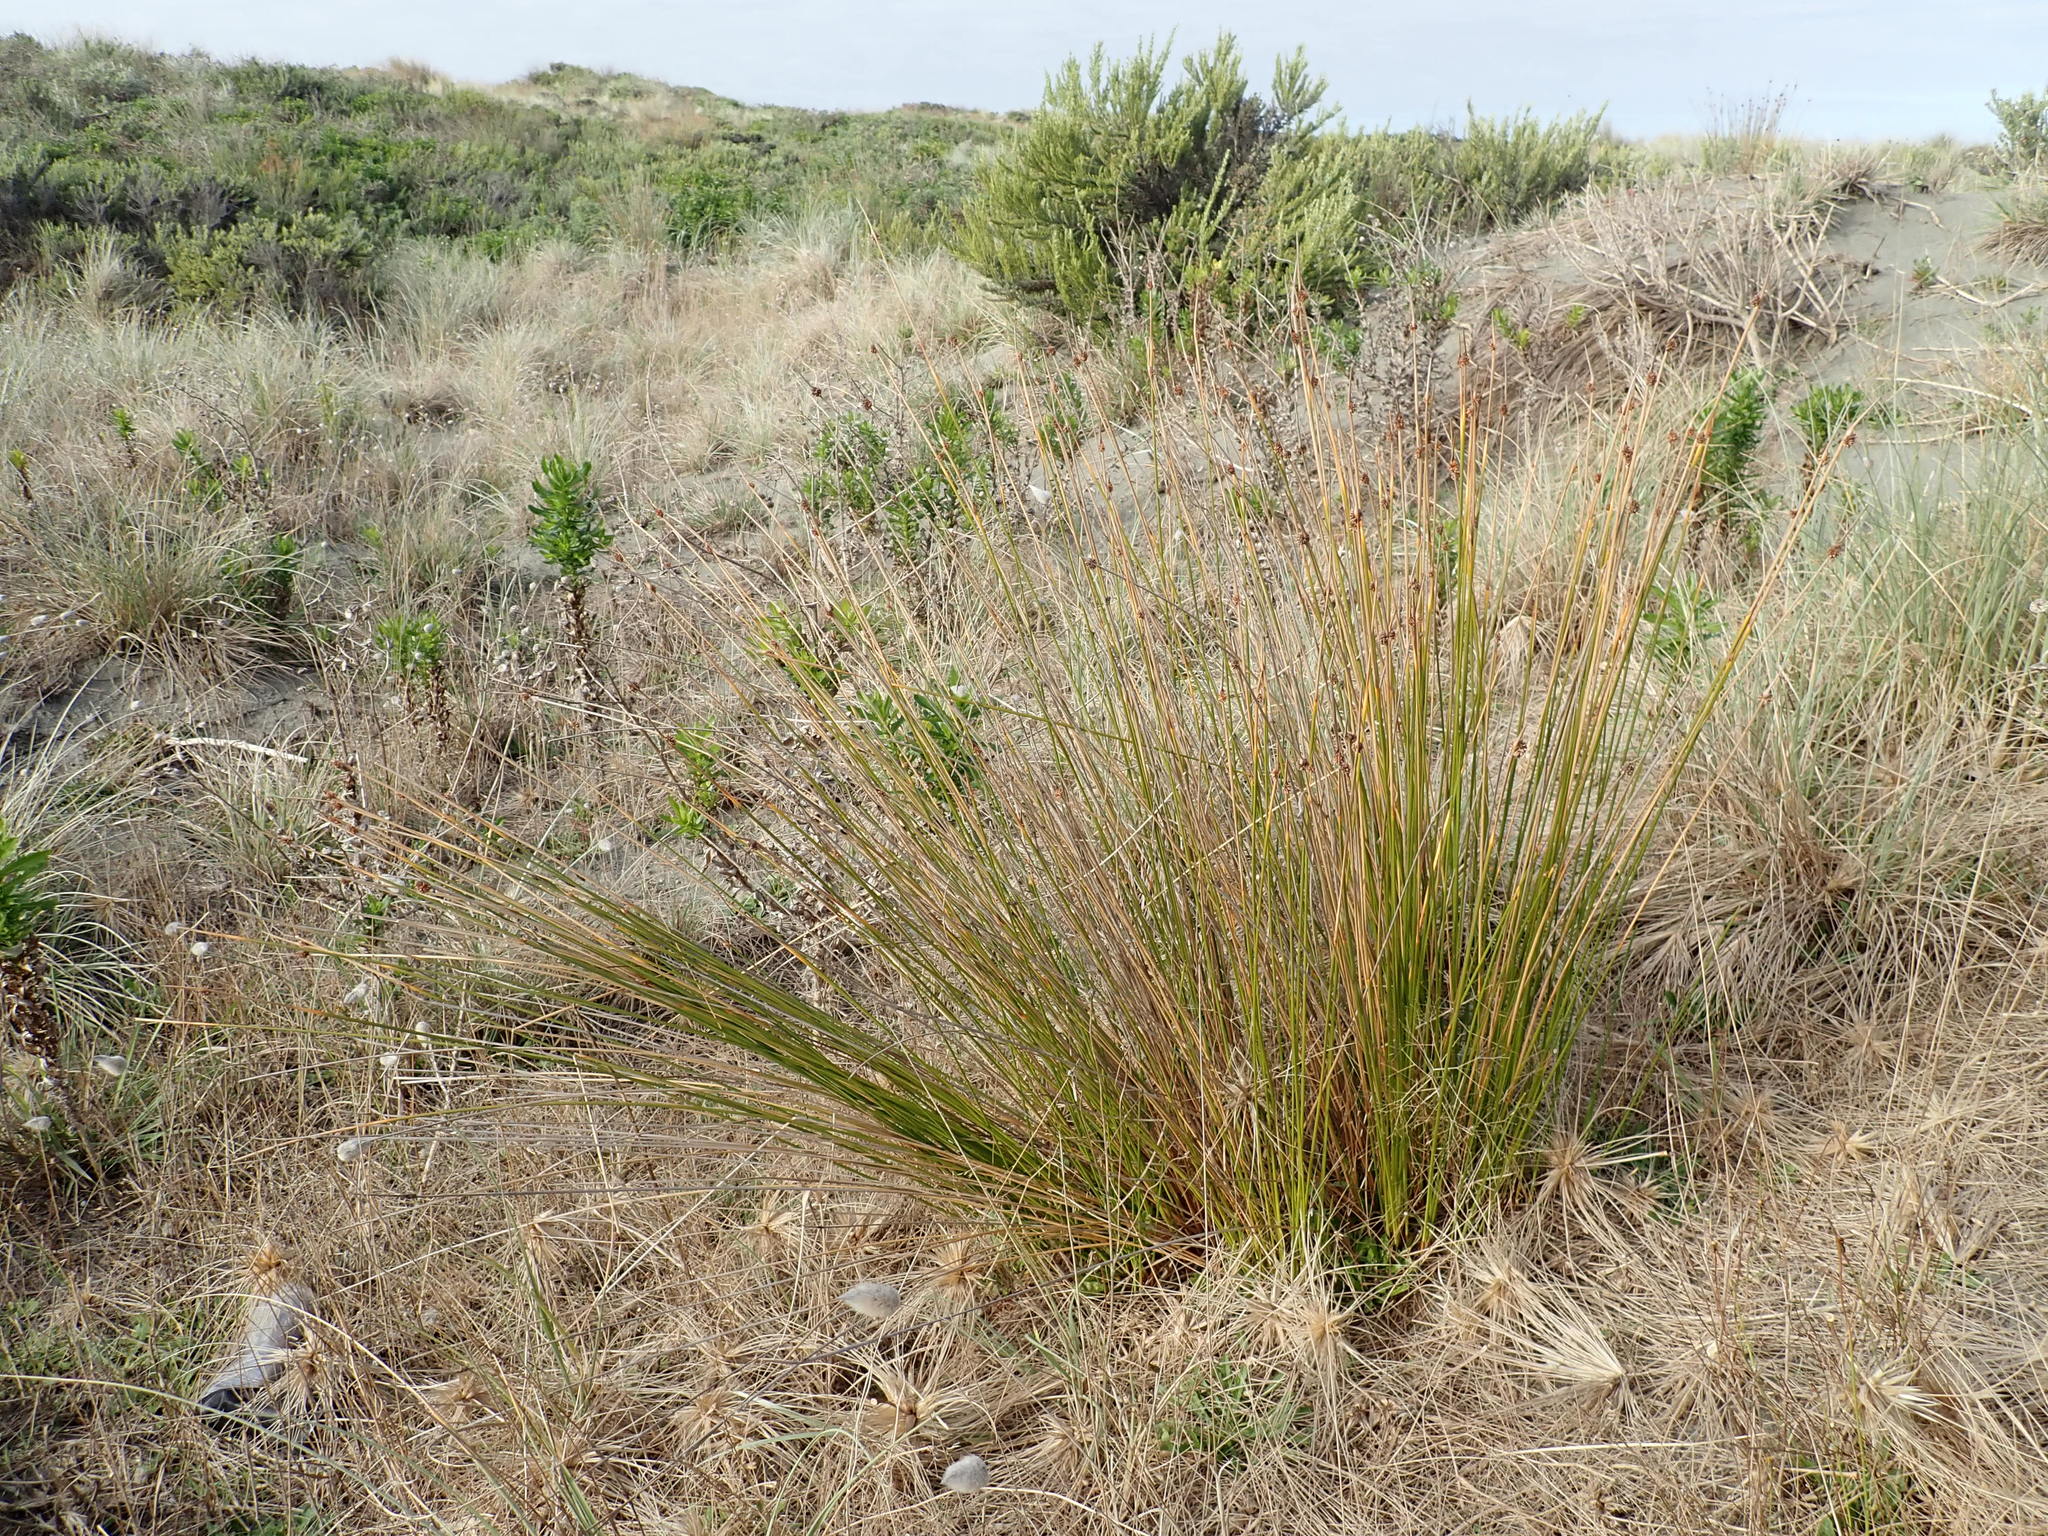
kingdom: Plantae
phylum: Tracheophyta
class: Liliopsida
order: Poales
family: Cyperaceae
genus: Ficinia
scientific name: Ficinia nodosa
